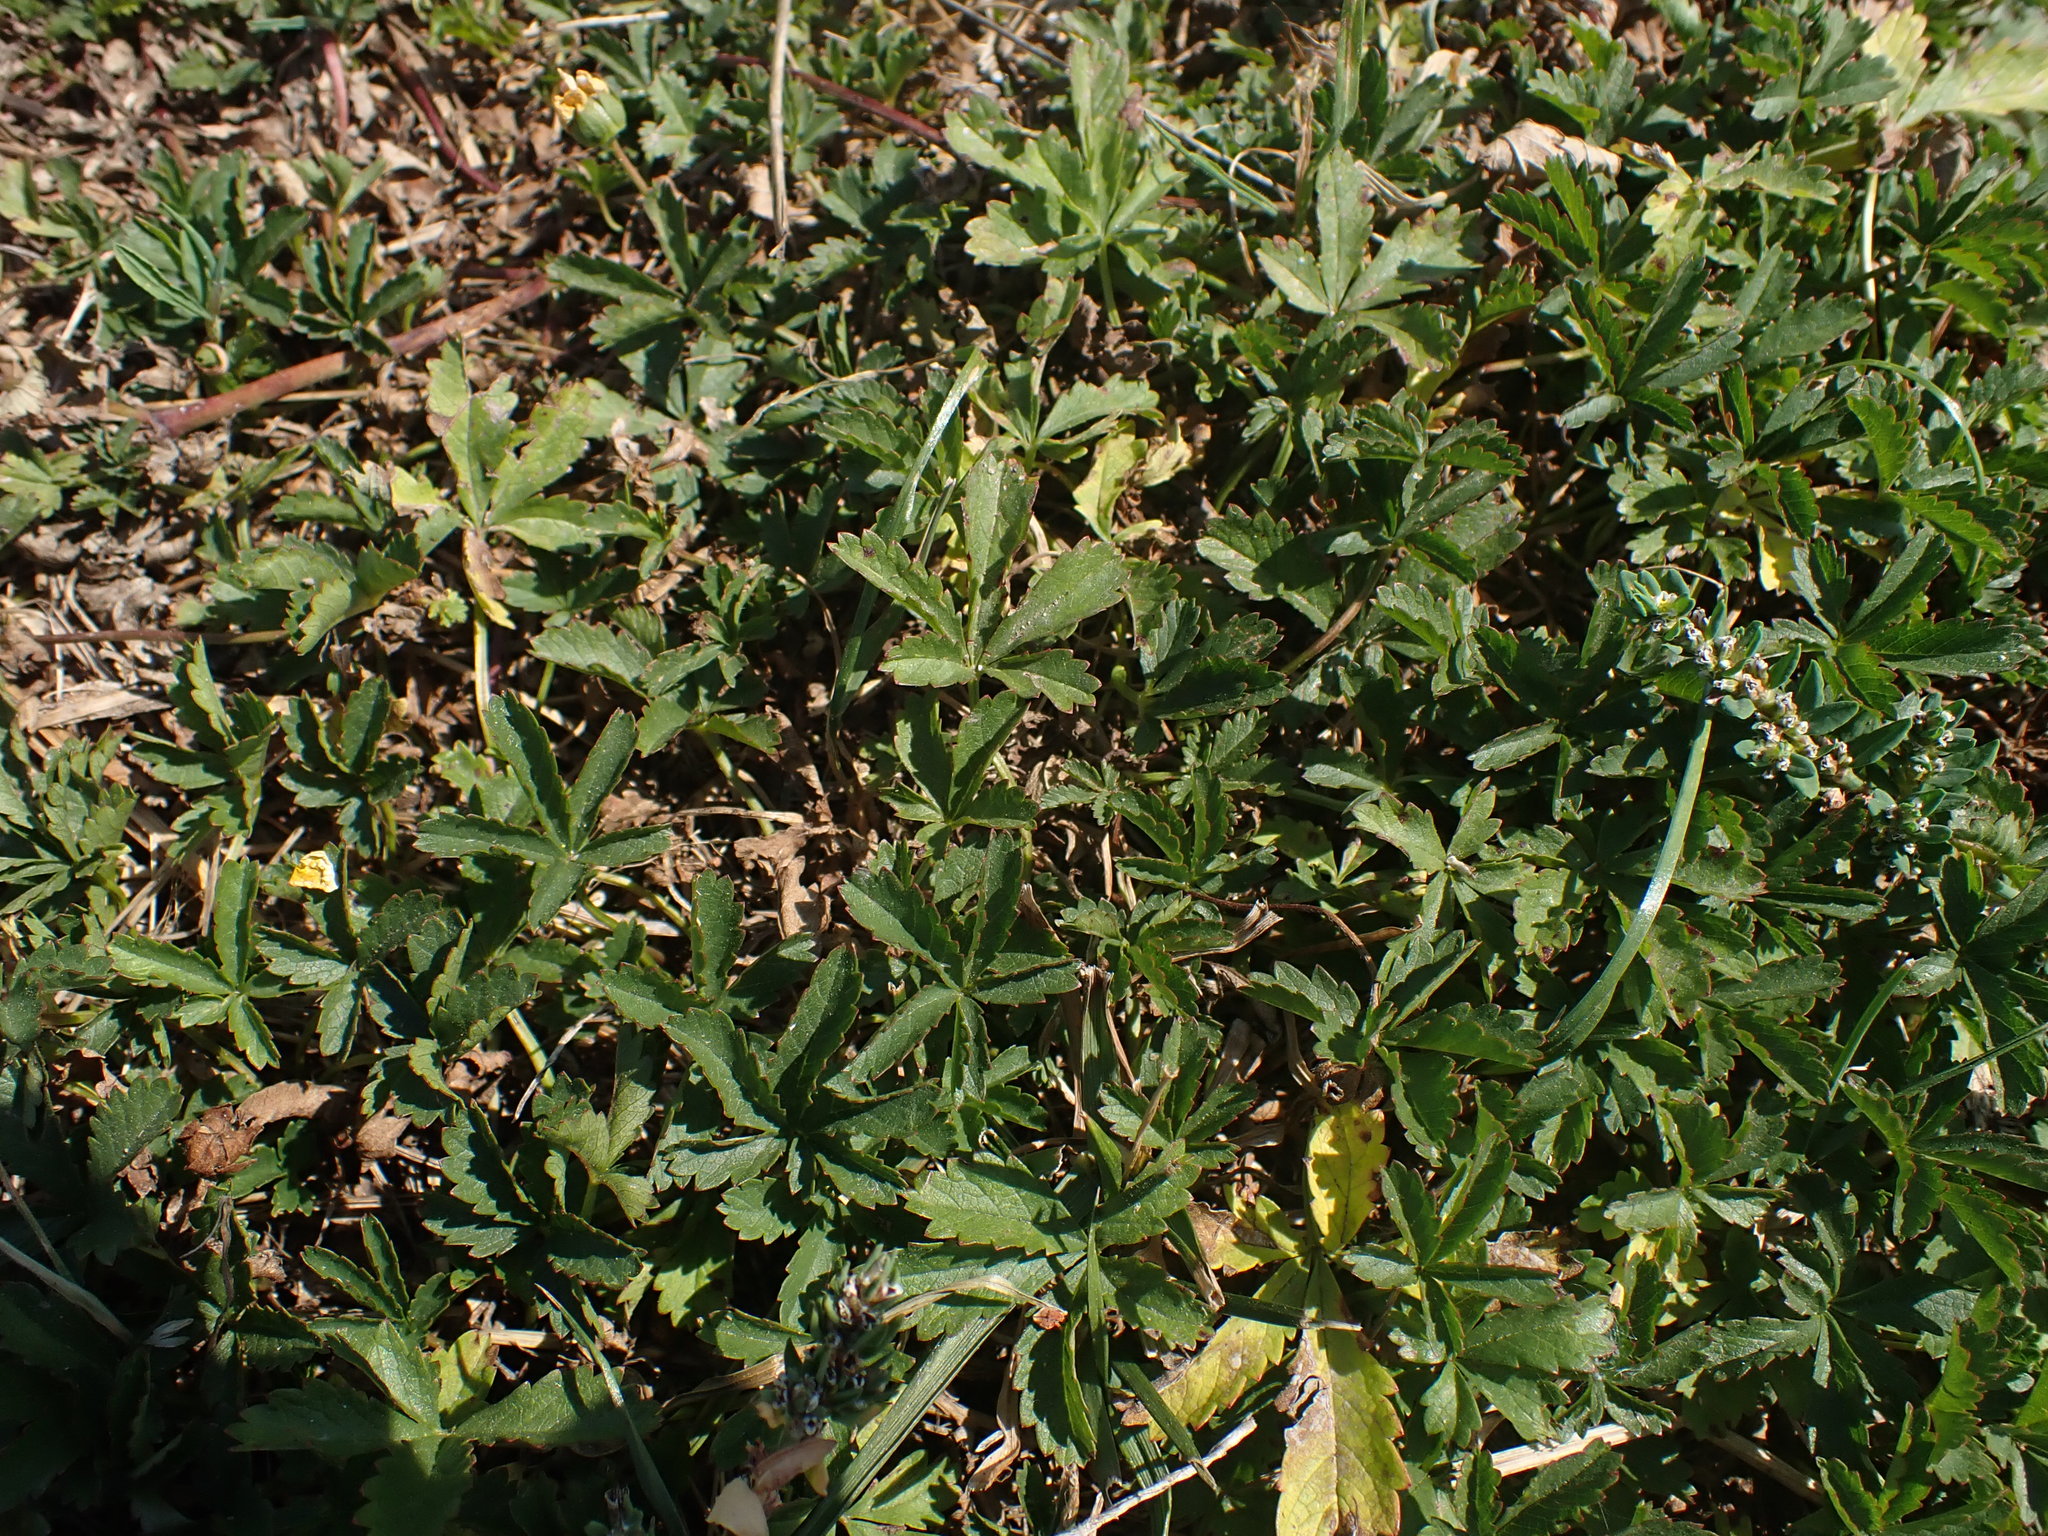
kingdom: Plantae
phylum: Tracheophyta
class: Magnoliopsida
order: Rosales
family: Rosaceae
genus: Potentilla
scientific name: Potentilla reptans
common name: Creeping cinquefoil
